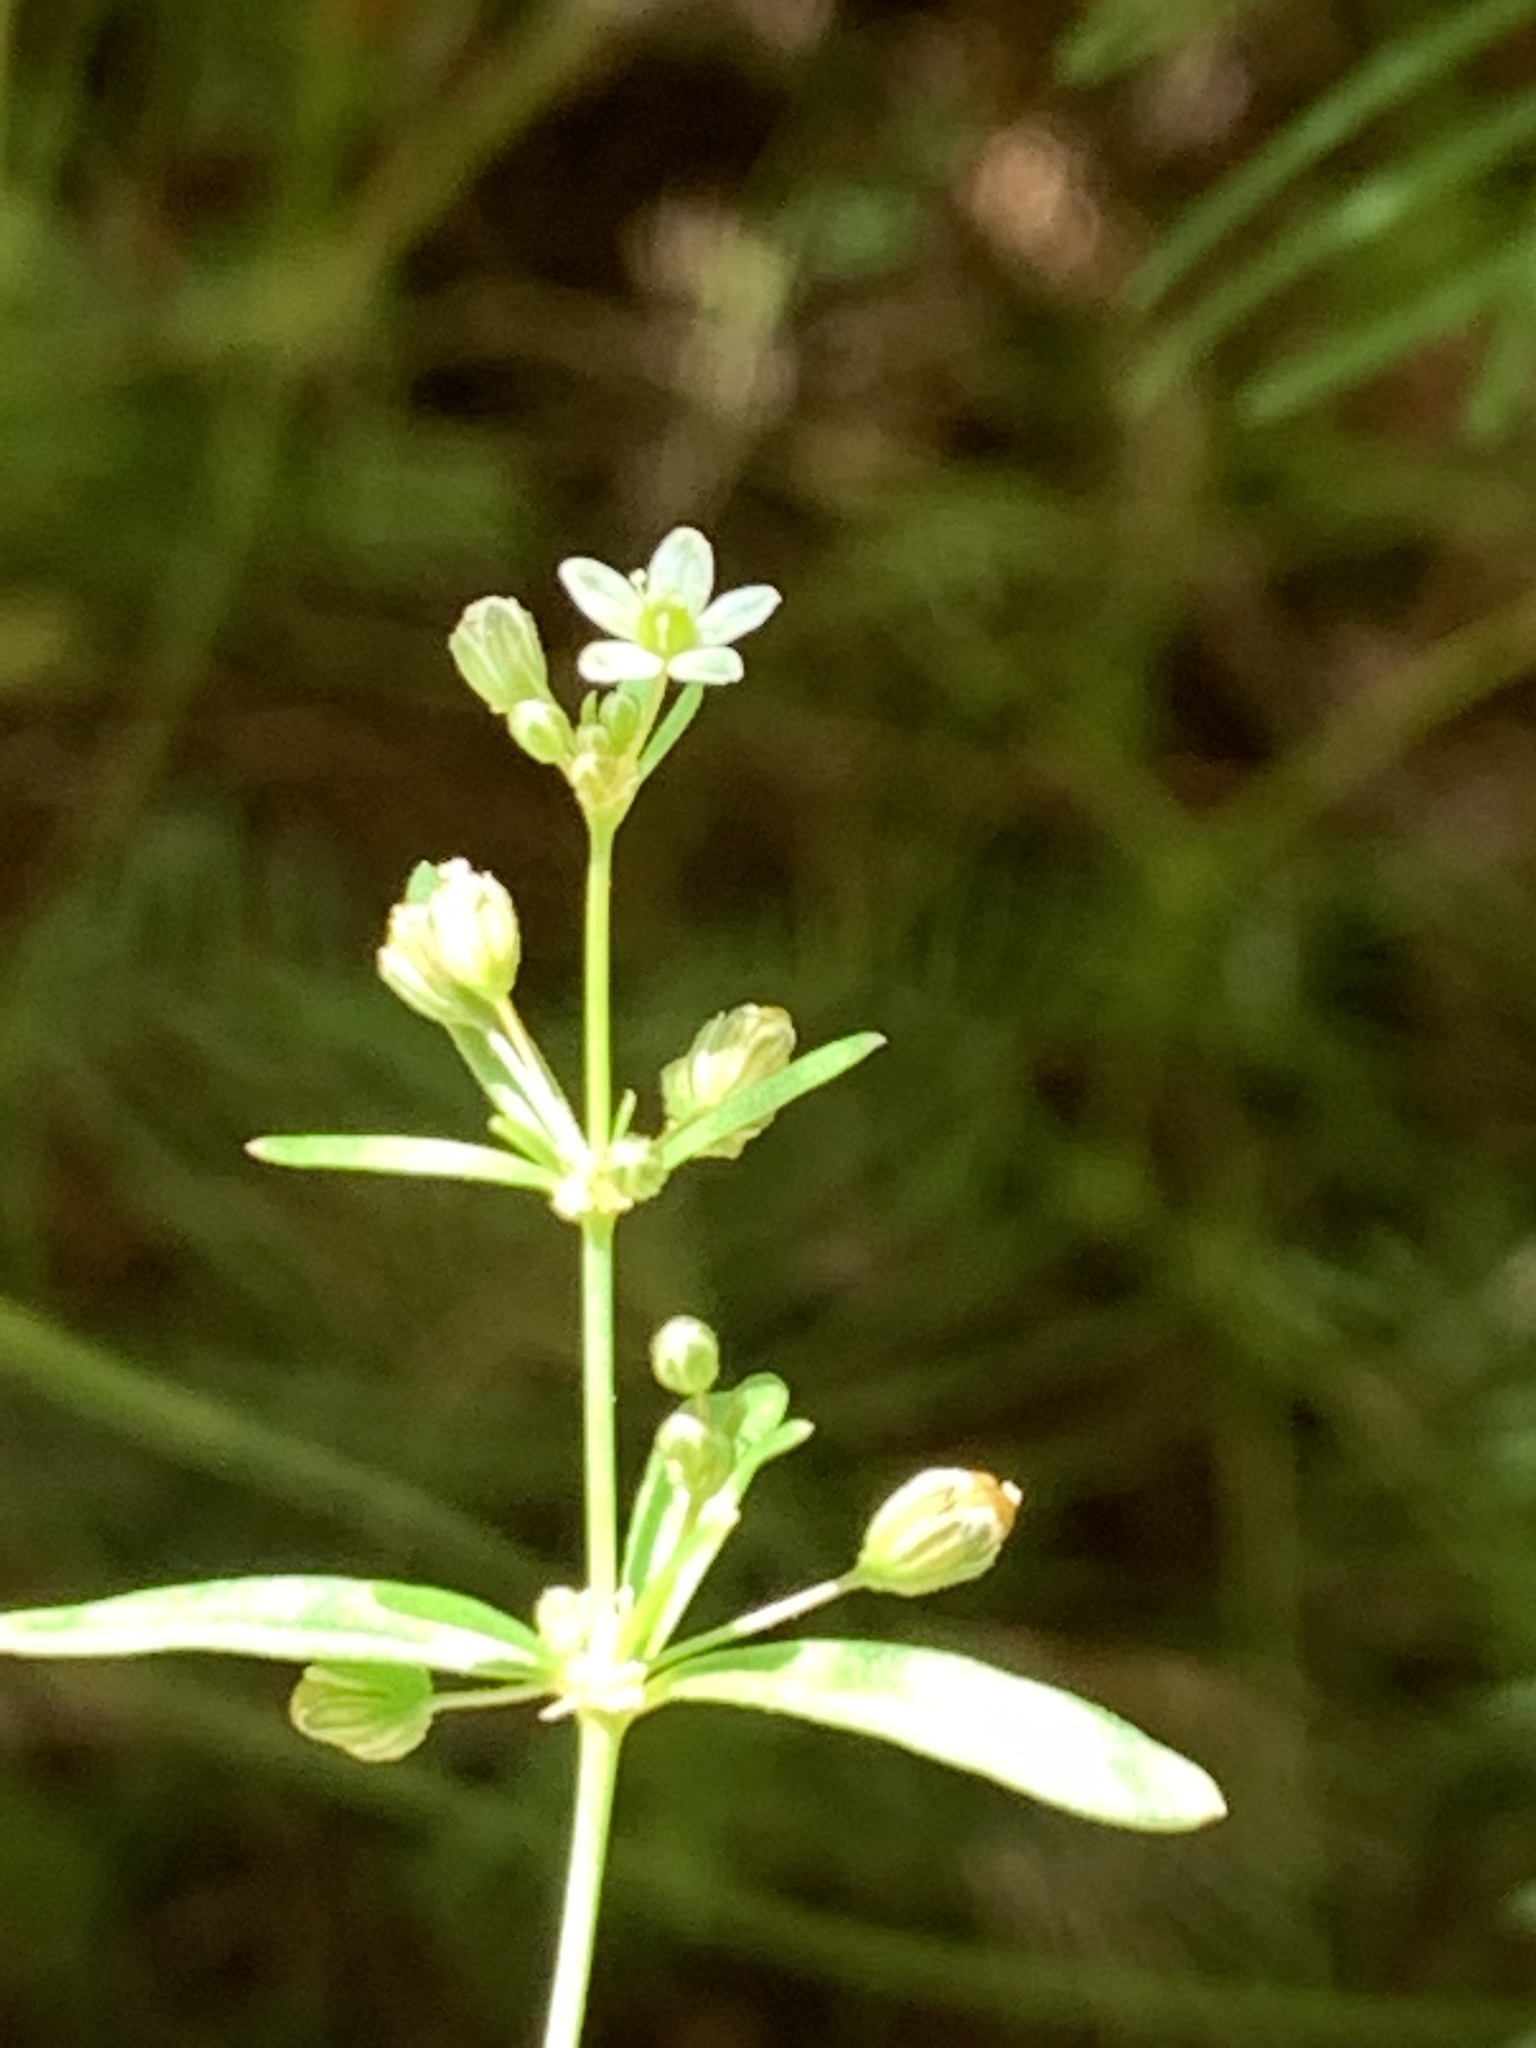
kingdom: Plantae
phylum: Tracheophyta
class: Magnoliopsida
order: Caryophyllales
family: Molluginaceae
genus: Mollugo
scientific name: Mollugo verticillata
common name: Green carpetweed
